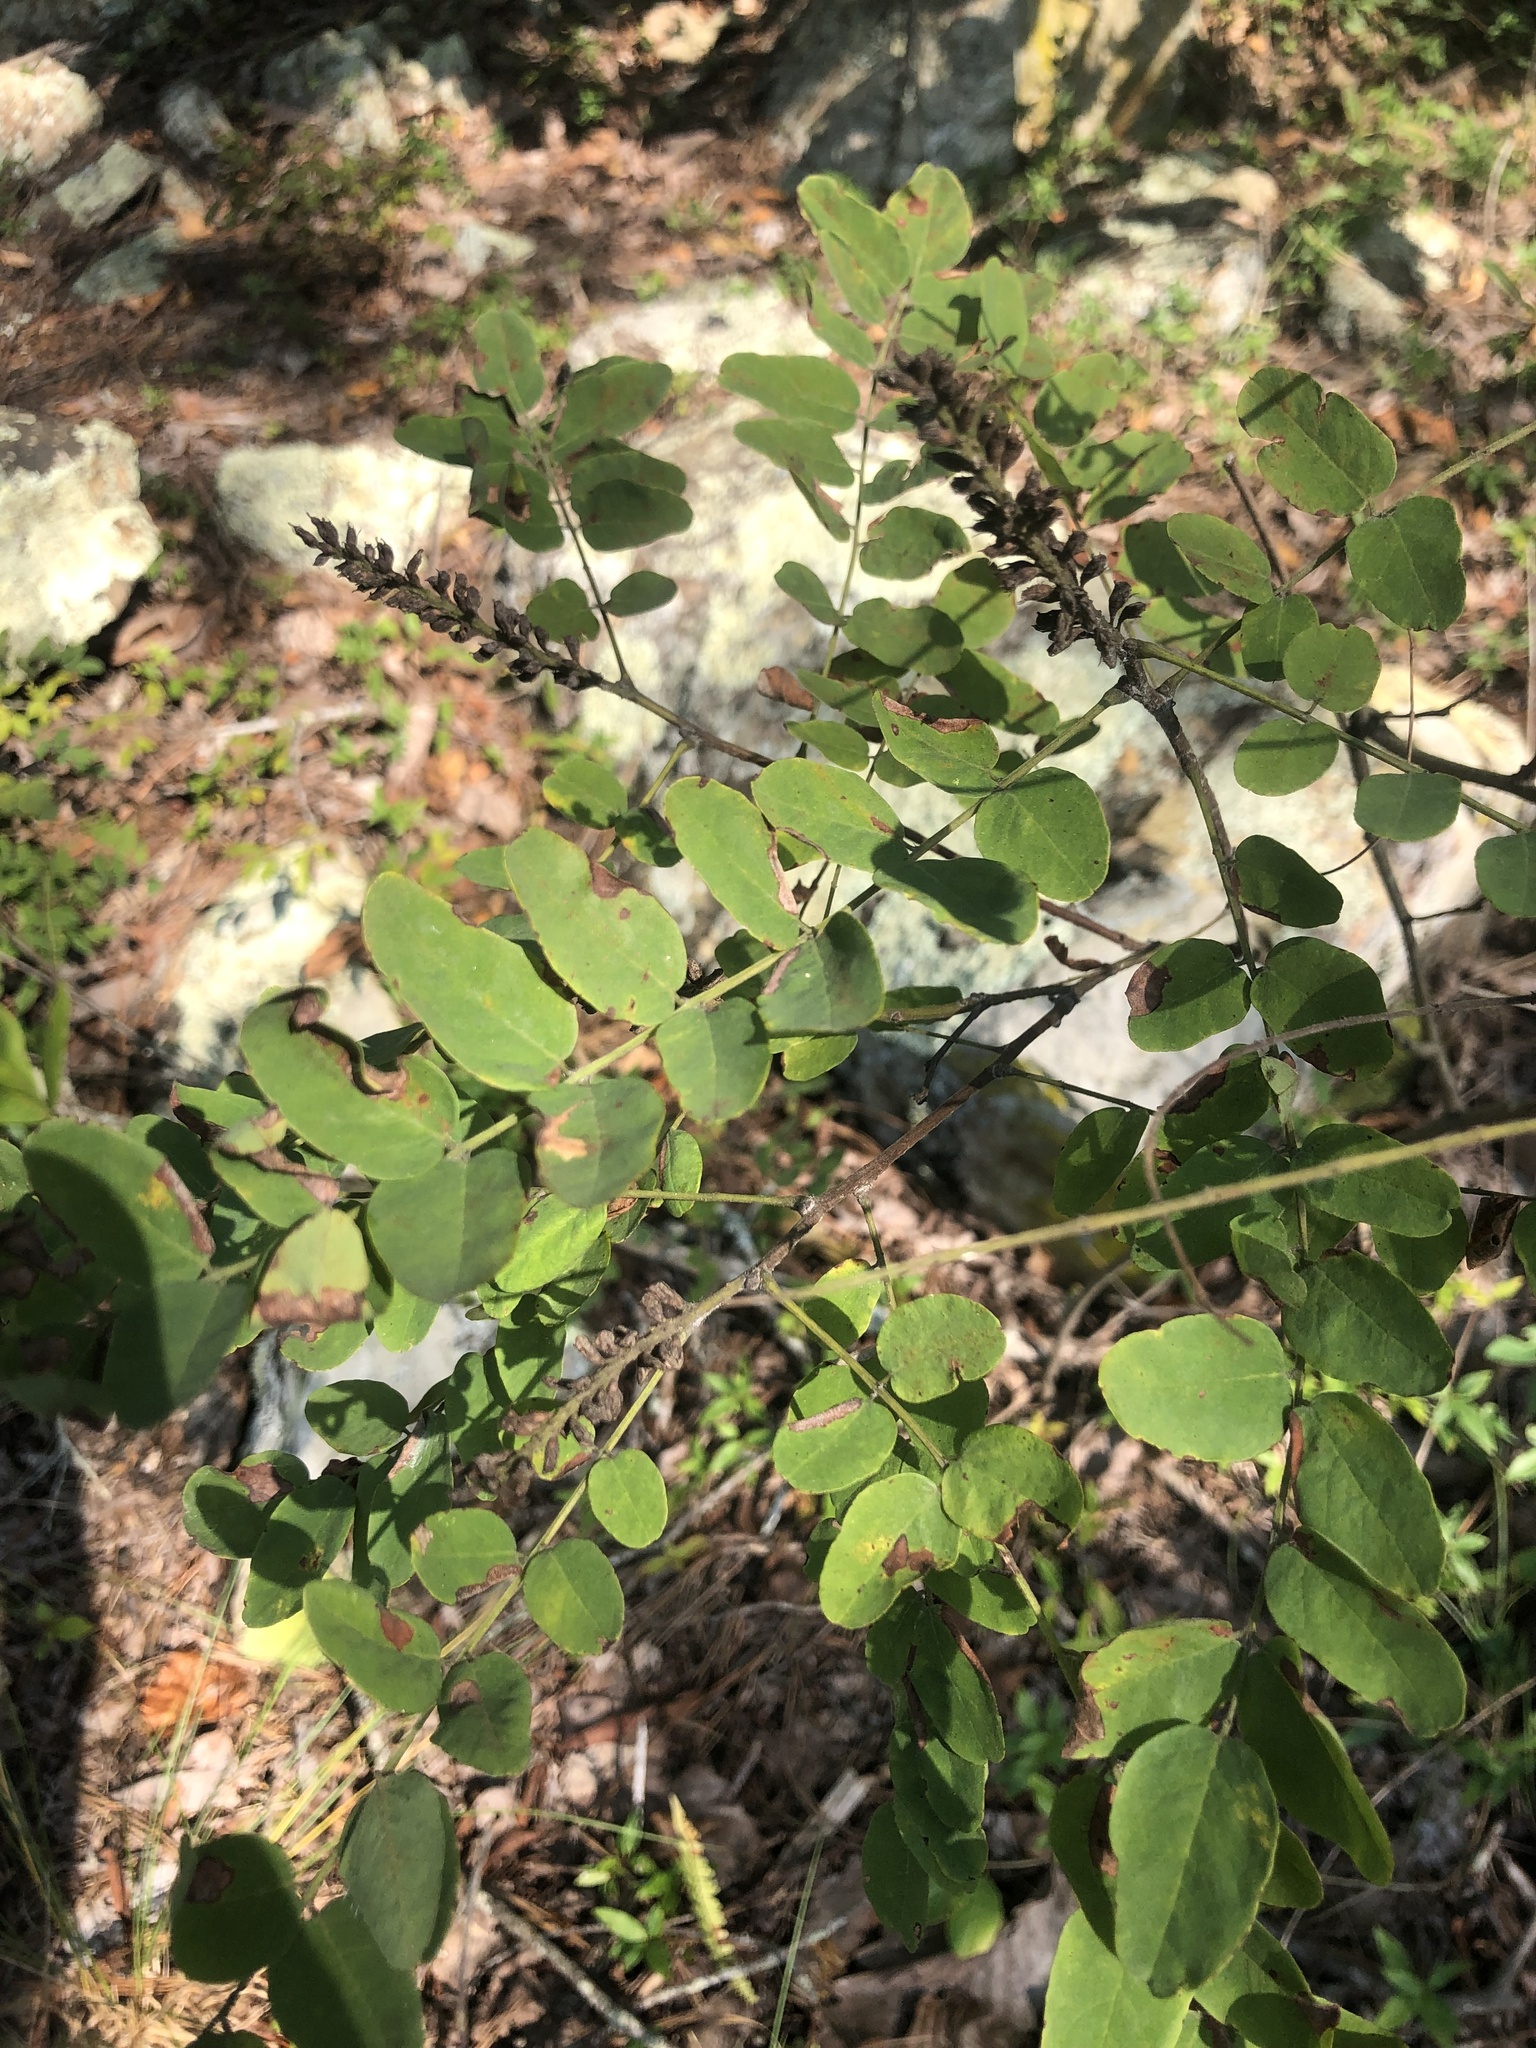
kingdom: Plantae
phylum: Tracheophyta
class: Magnoliopsida
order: Fabales
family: Fabaceae
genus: Amorpha
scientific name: Amorpha schwerinii
